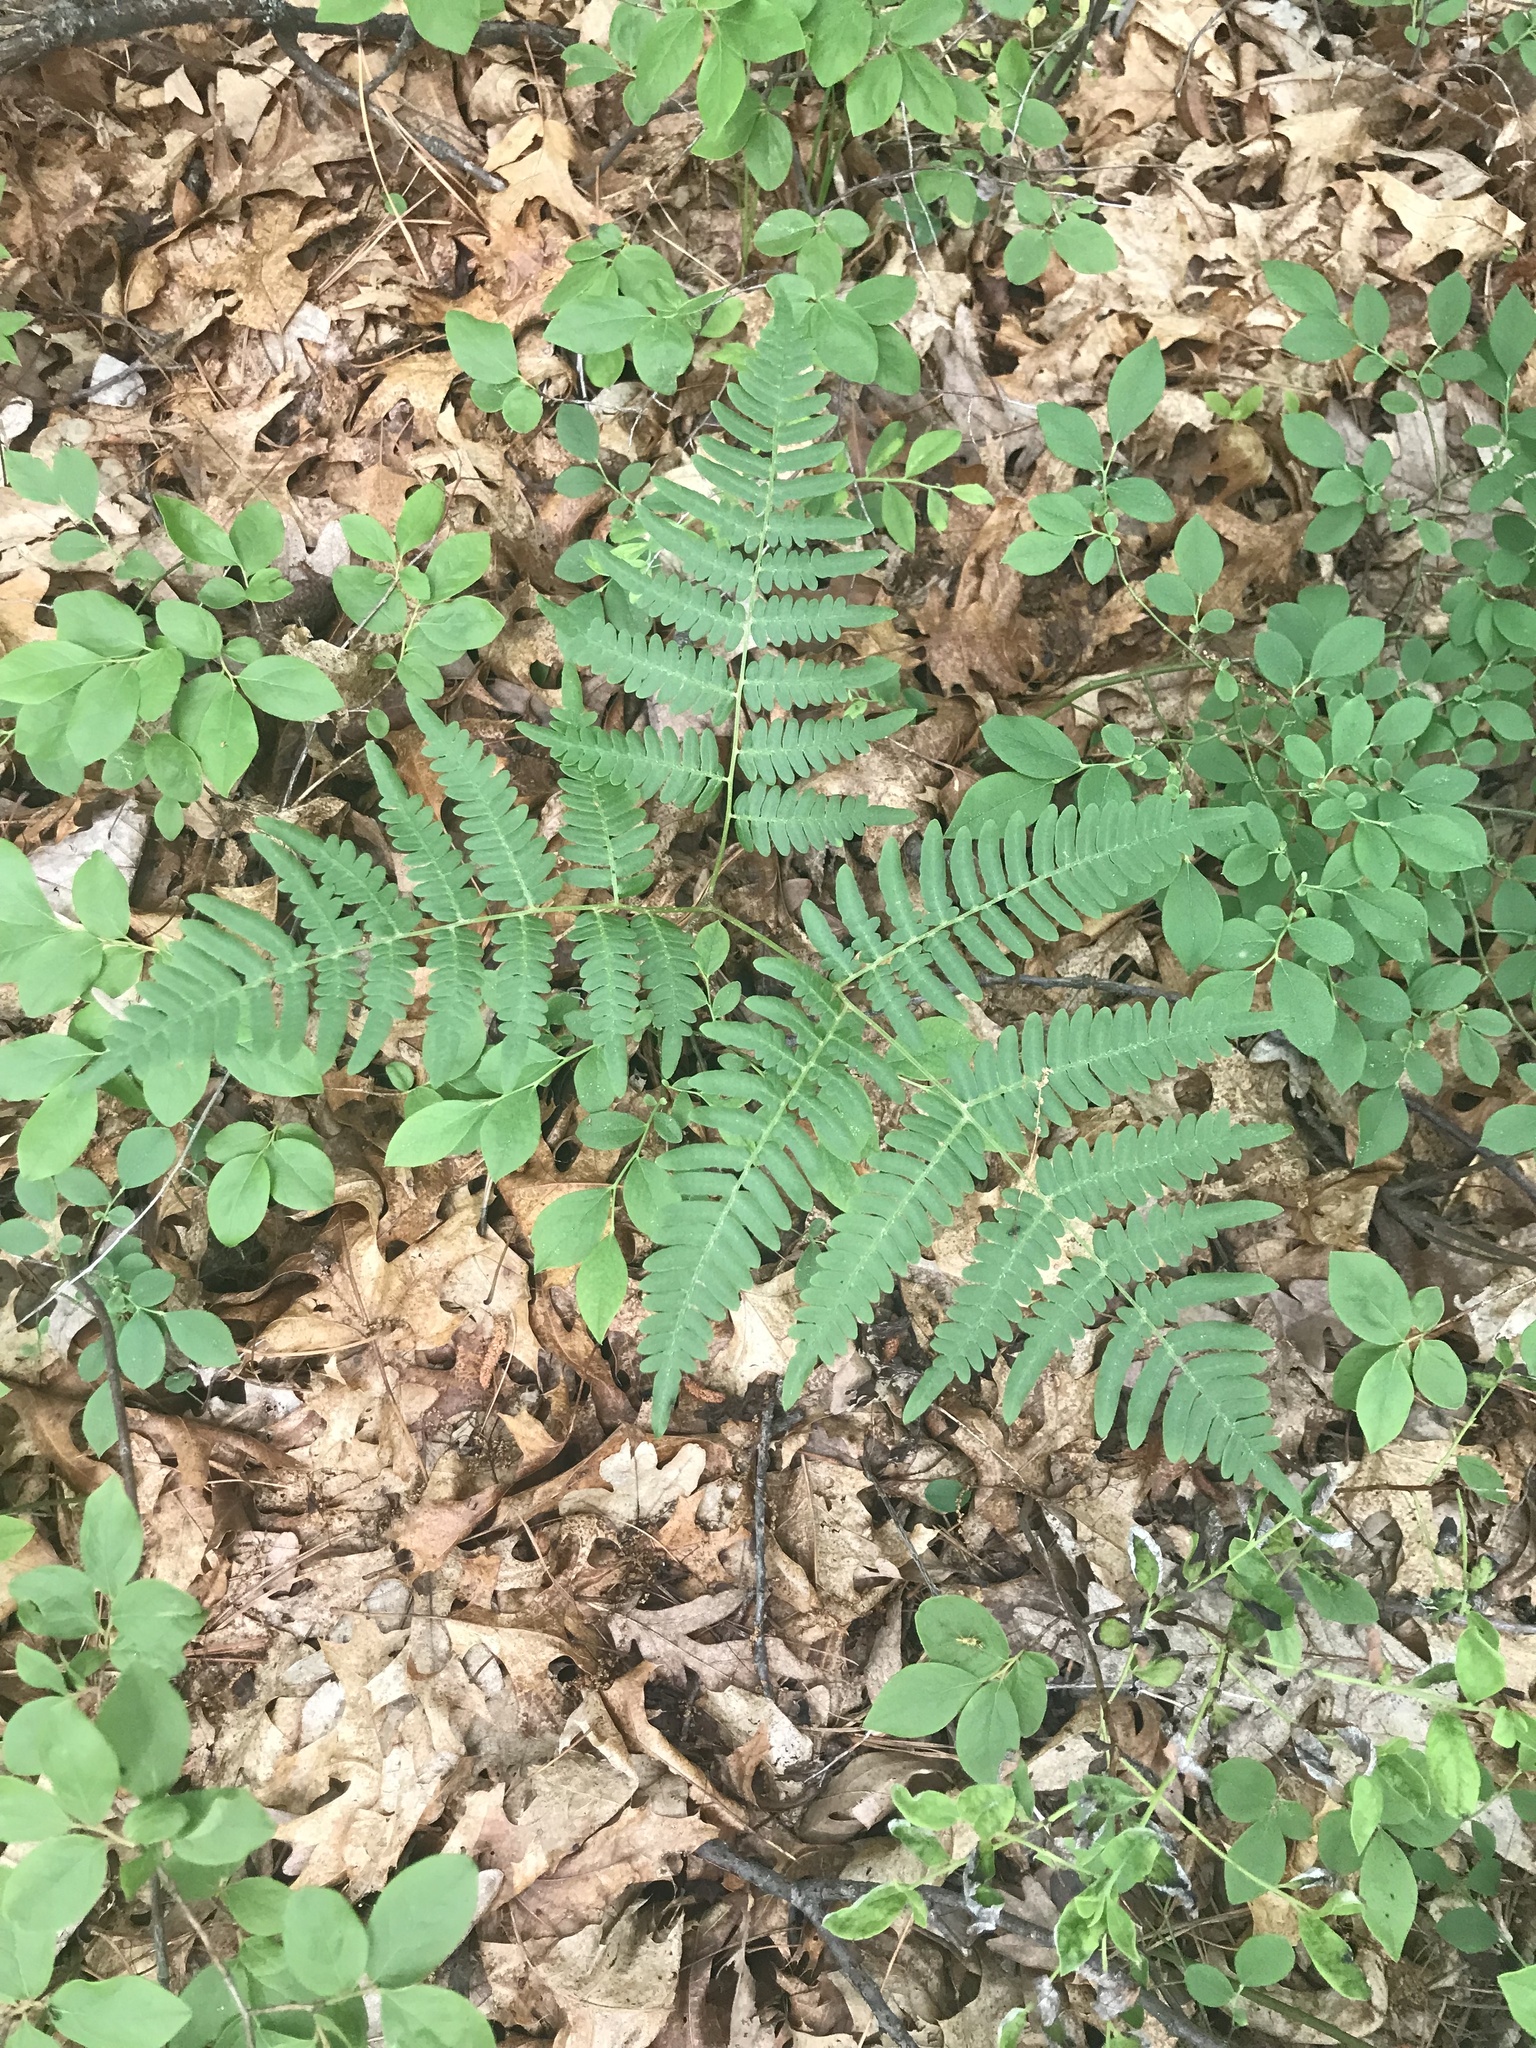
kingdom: Plantae
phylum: Tracheophyta
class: Polypodiopsida
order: Polypodiales
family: Dennstaedtiaceae
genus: Pteridium
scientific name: Pteridium aquilinum
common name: Bracken
